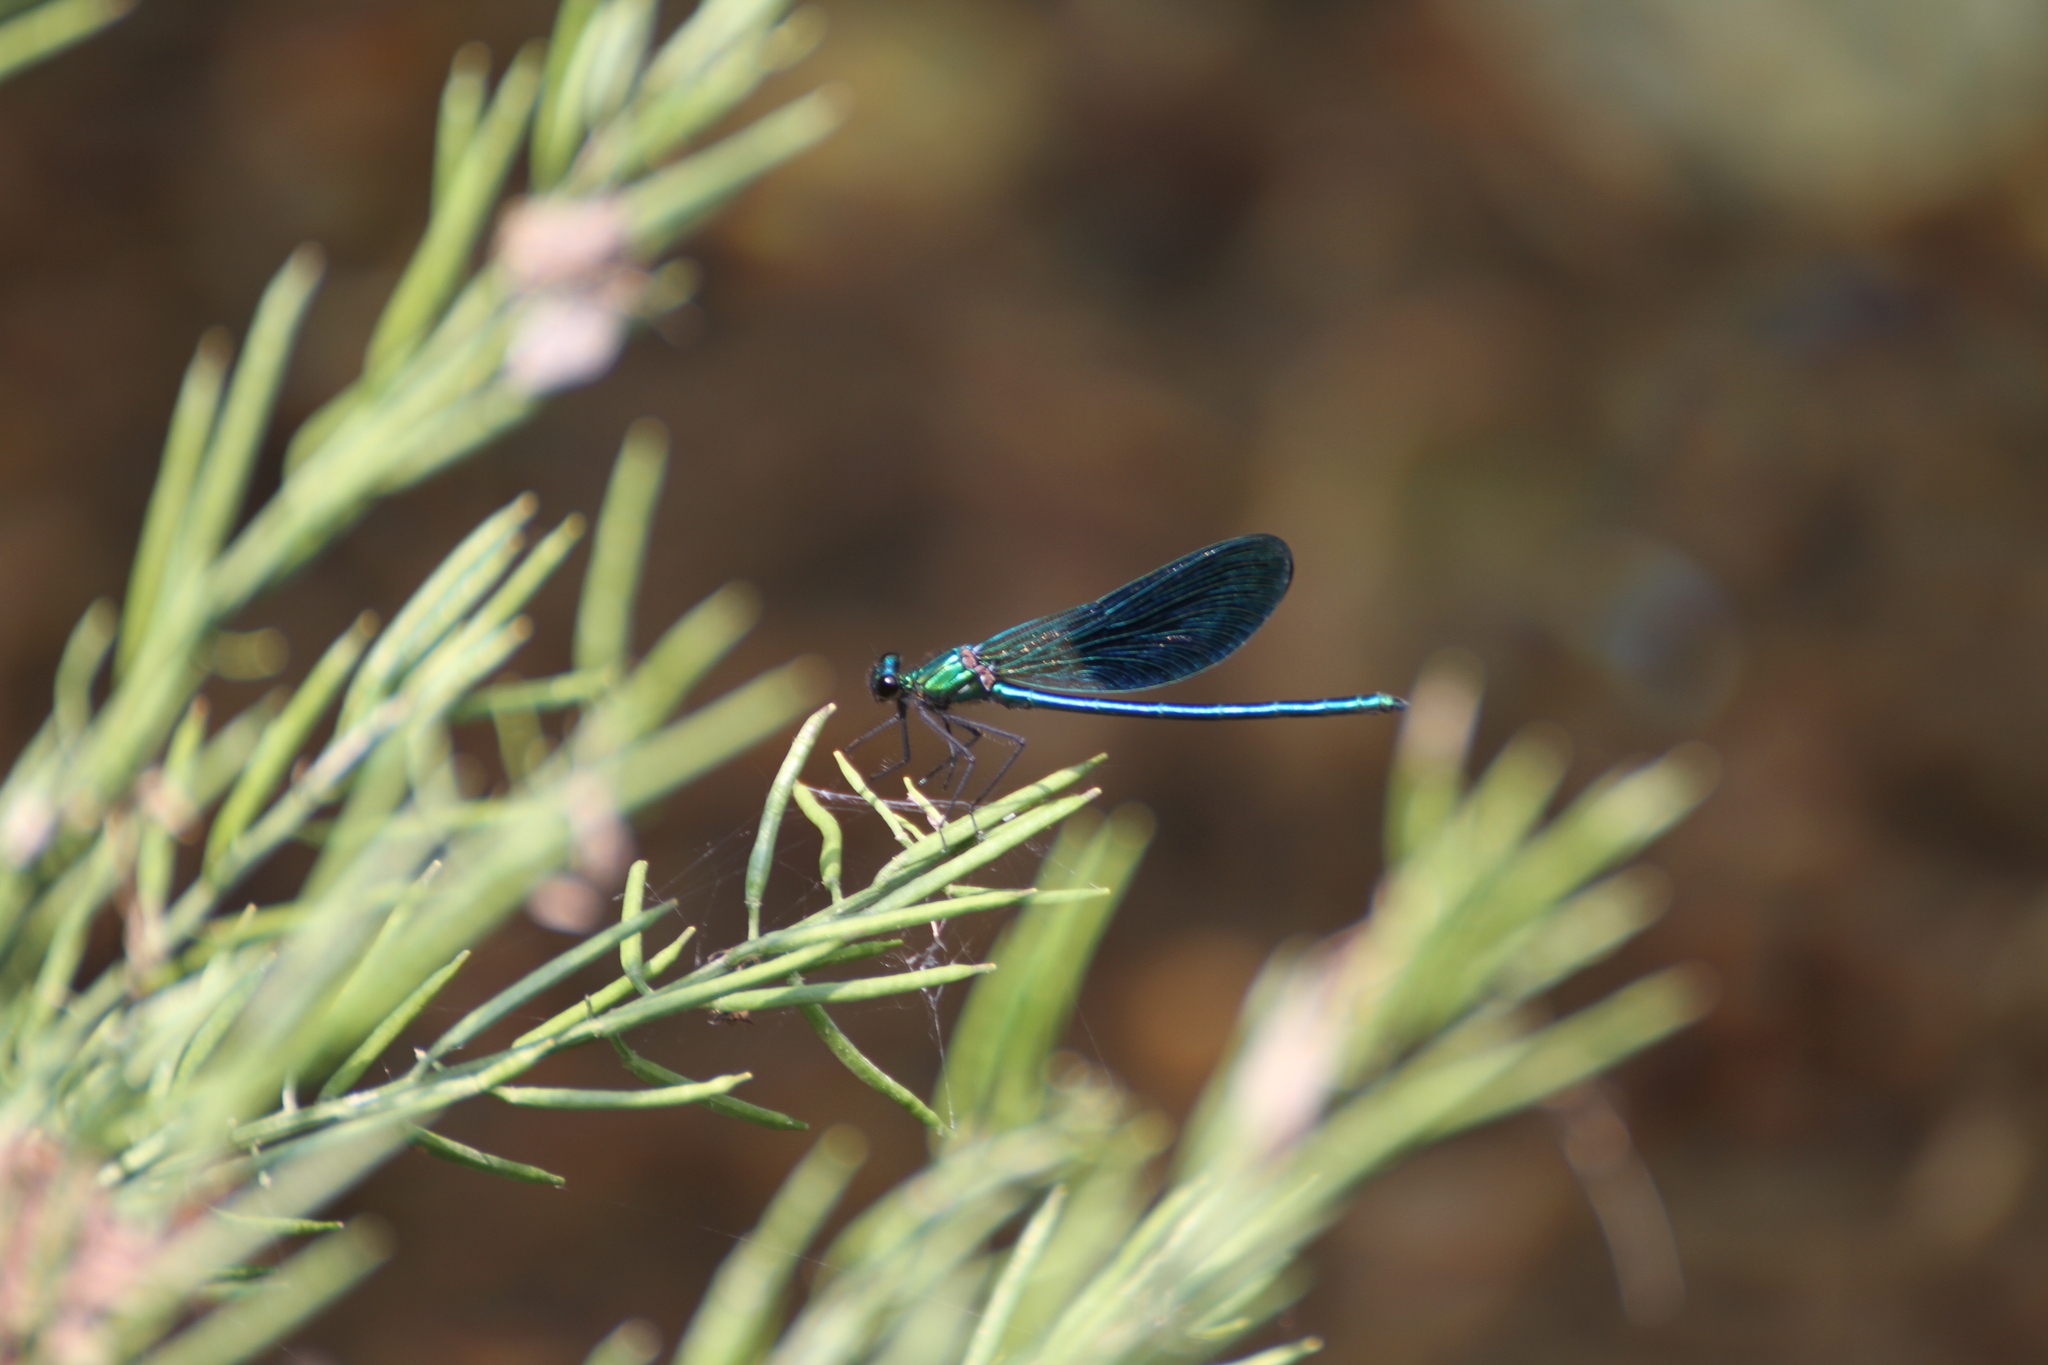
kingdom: Animalia
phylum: Arthropoda
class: Insecta
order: Odonata
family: Calopterygidae
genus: Calopteryx
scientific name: Calopteryx xanthostoma
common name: Western demoiselle
